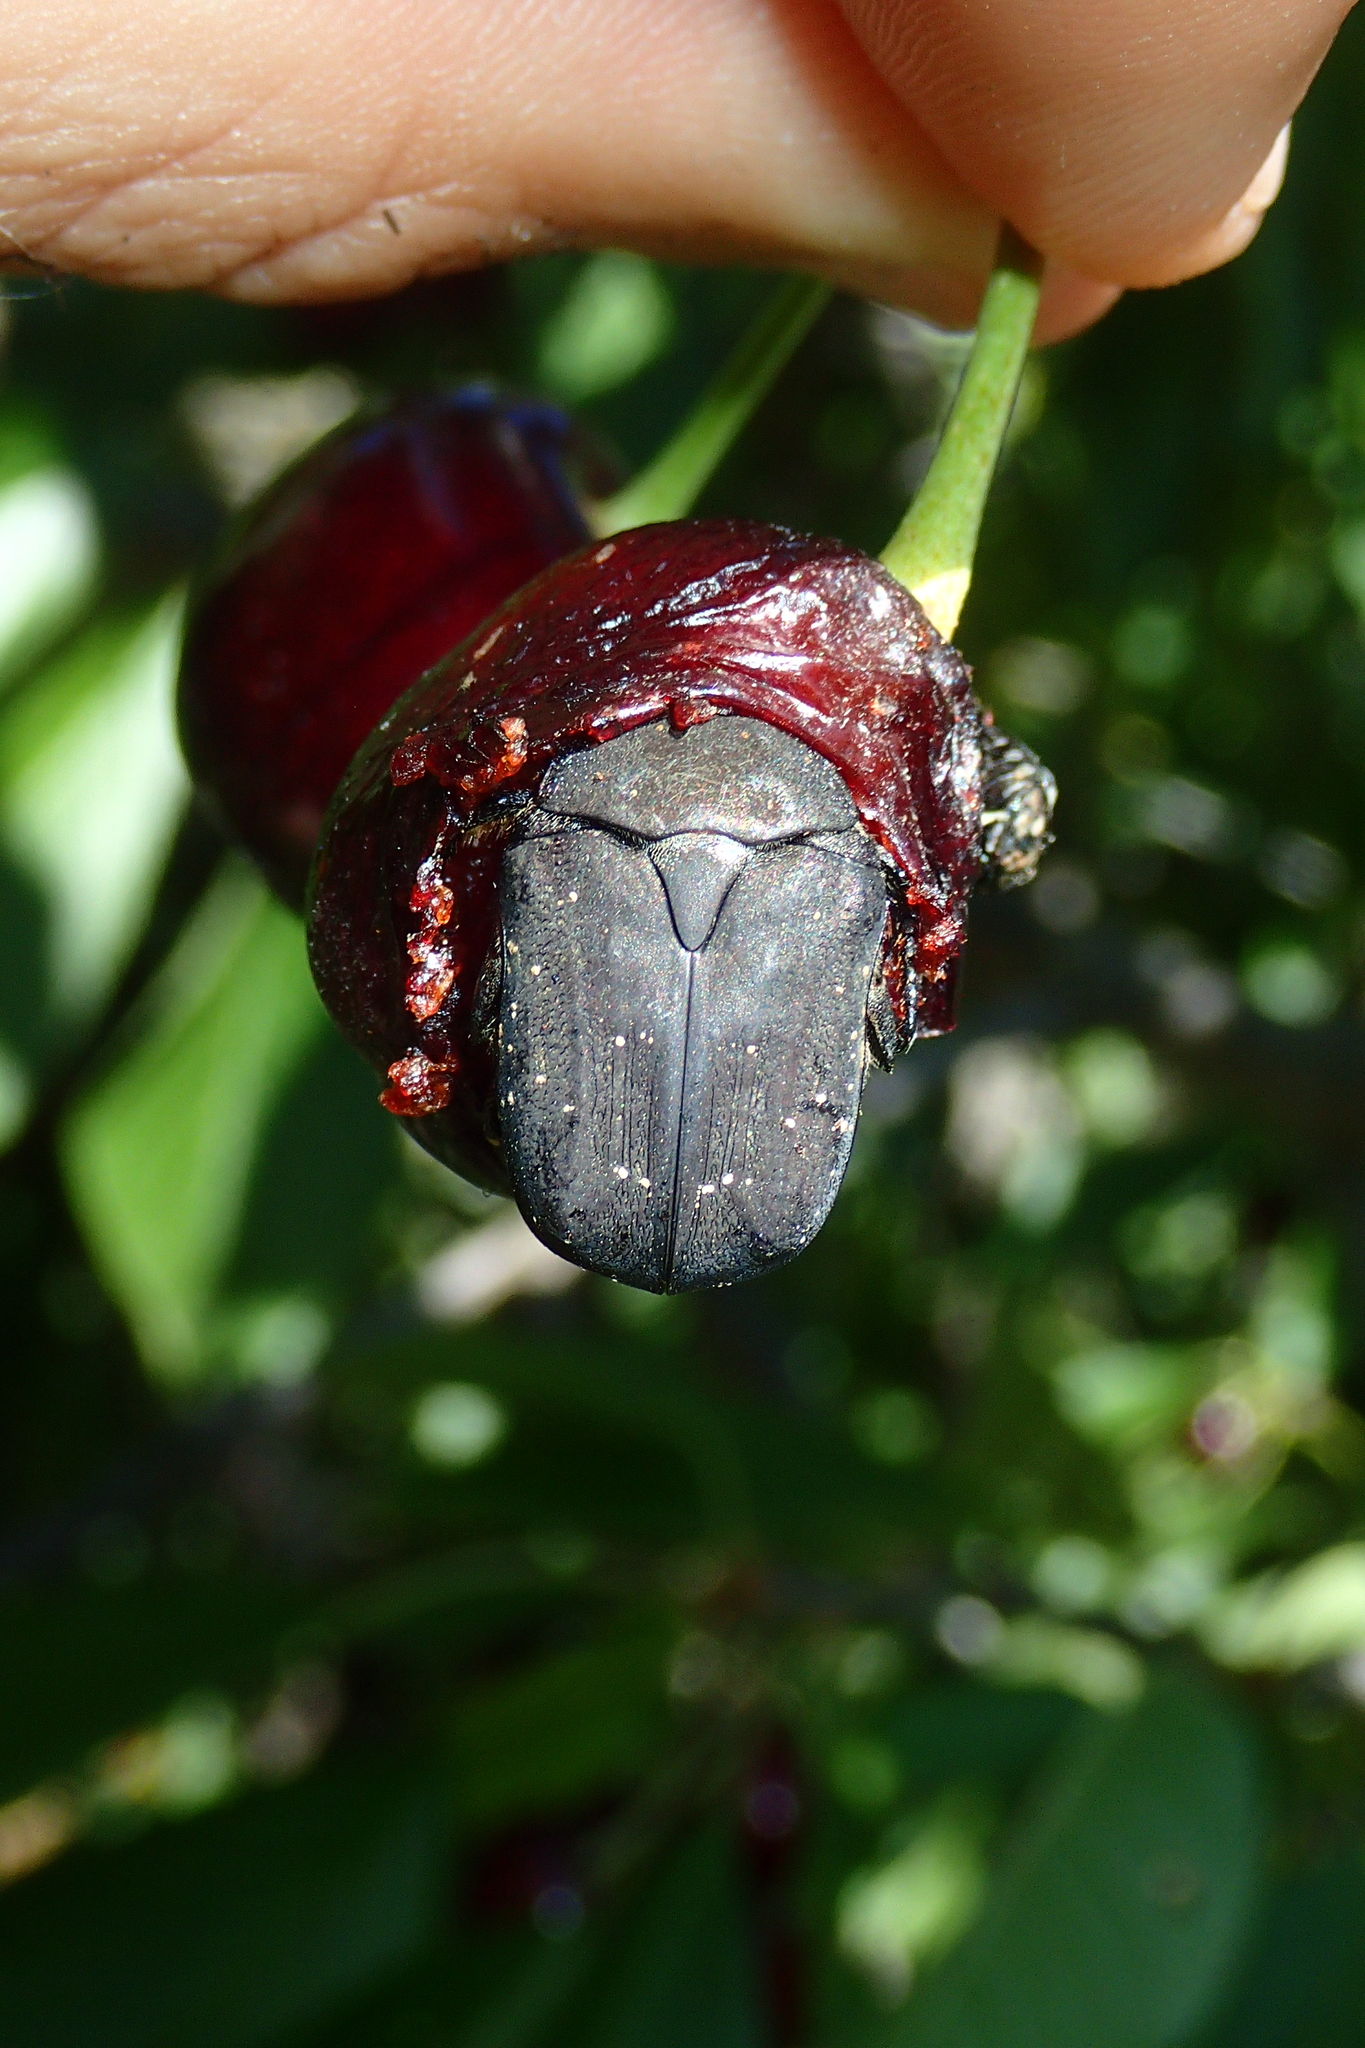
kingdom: Animalia
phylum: Arthropoda
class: Insecta
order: Coleoptera
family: Scarabaeidae
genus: Protaetia
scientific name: Protaetia morio
